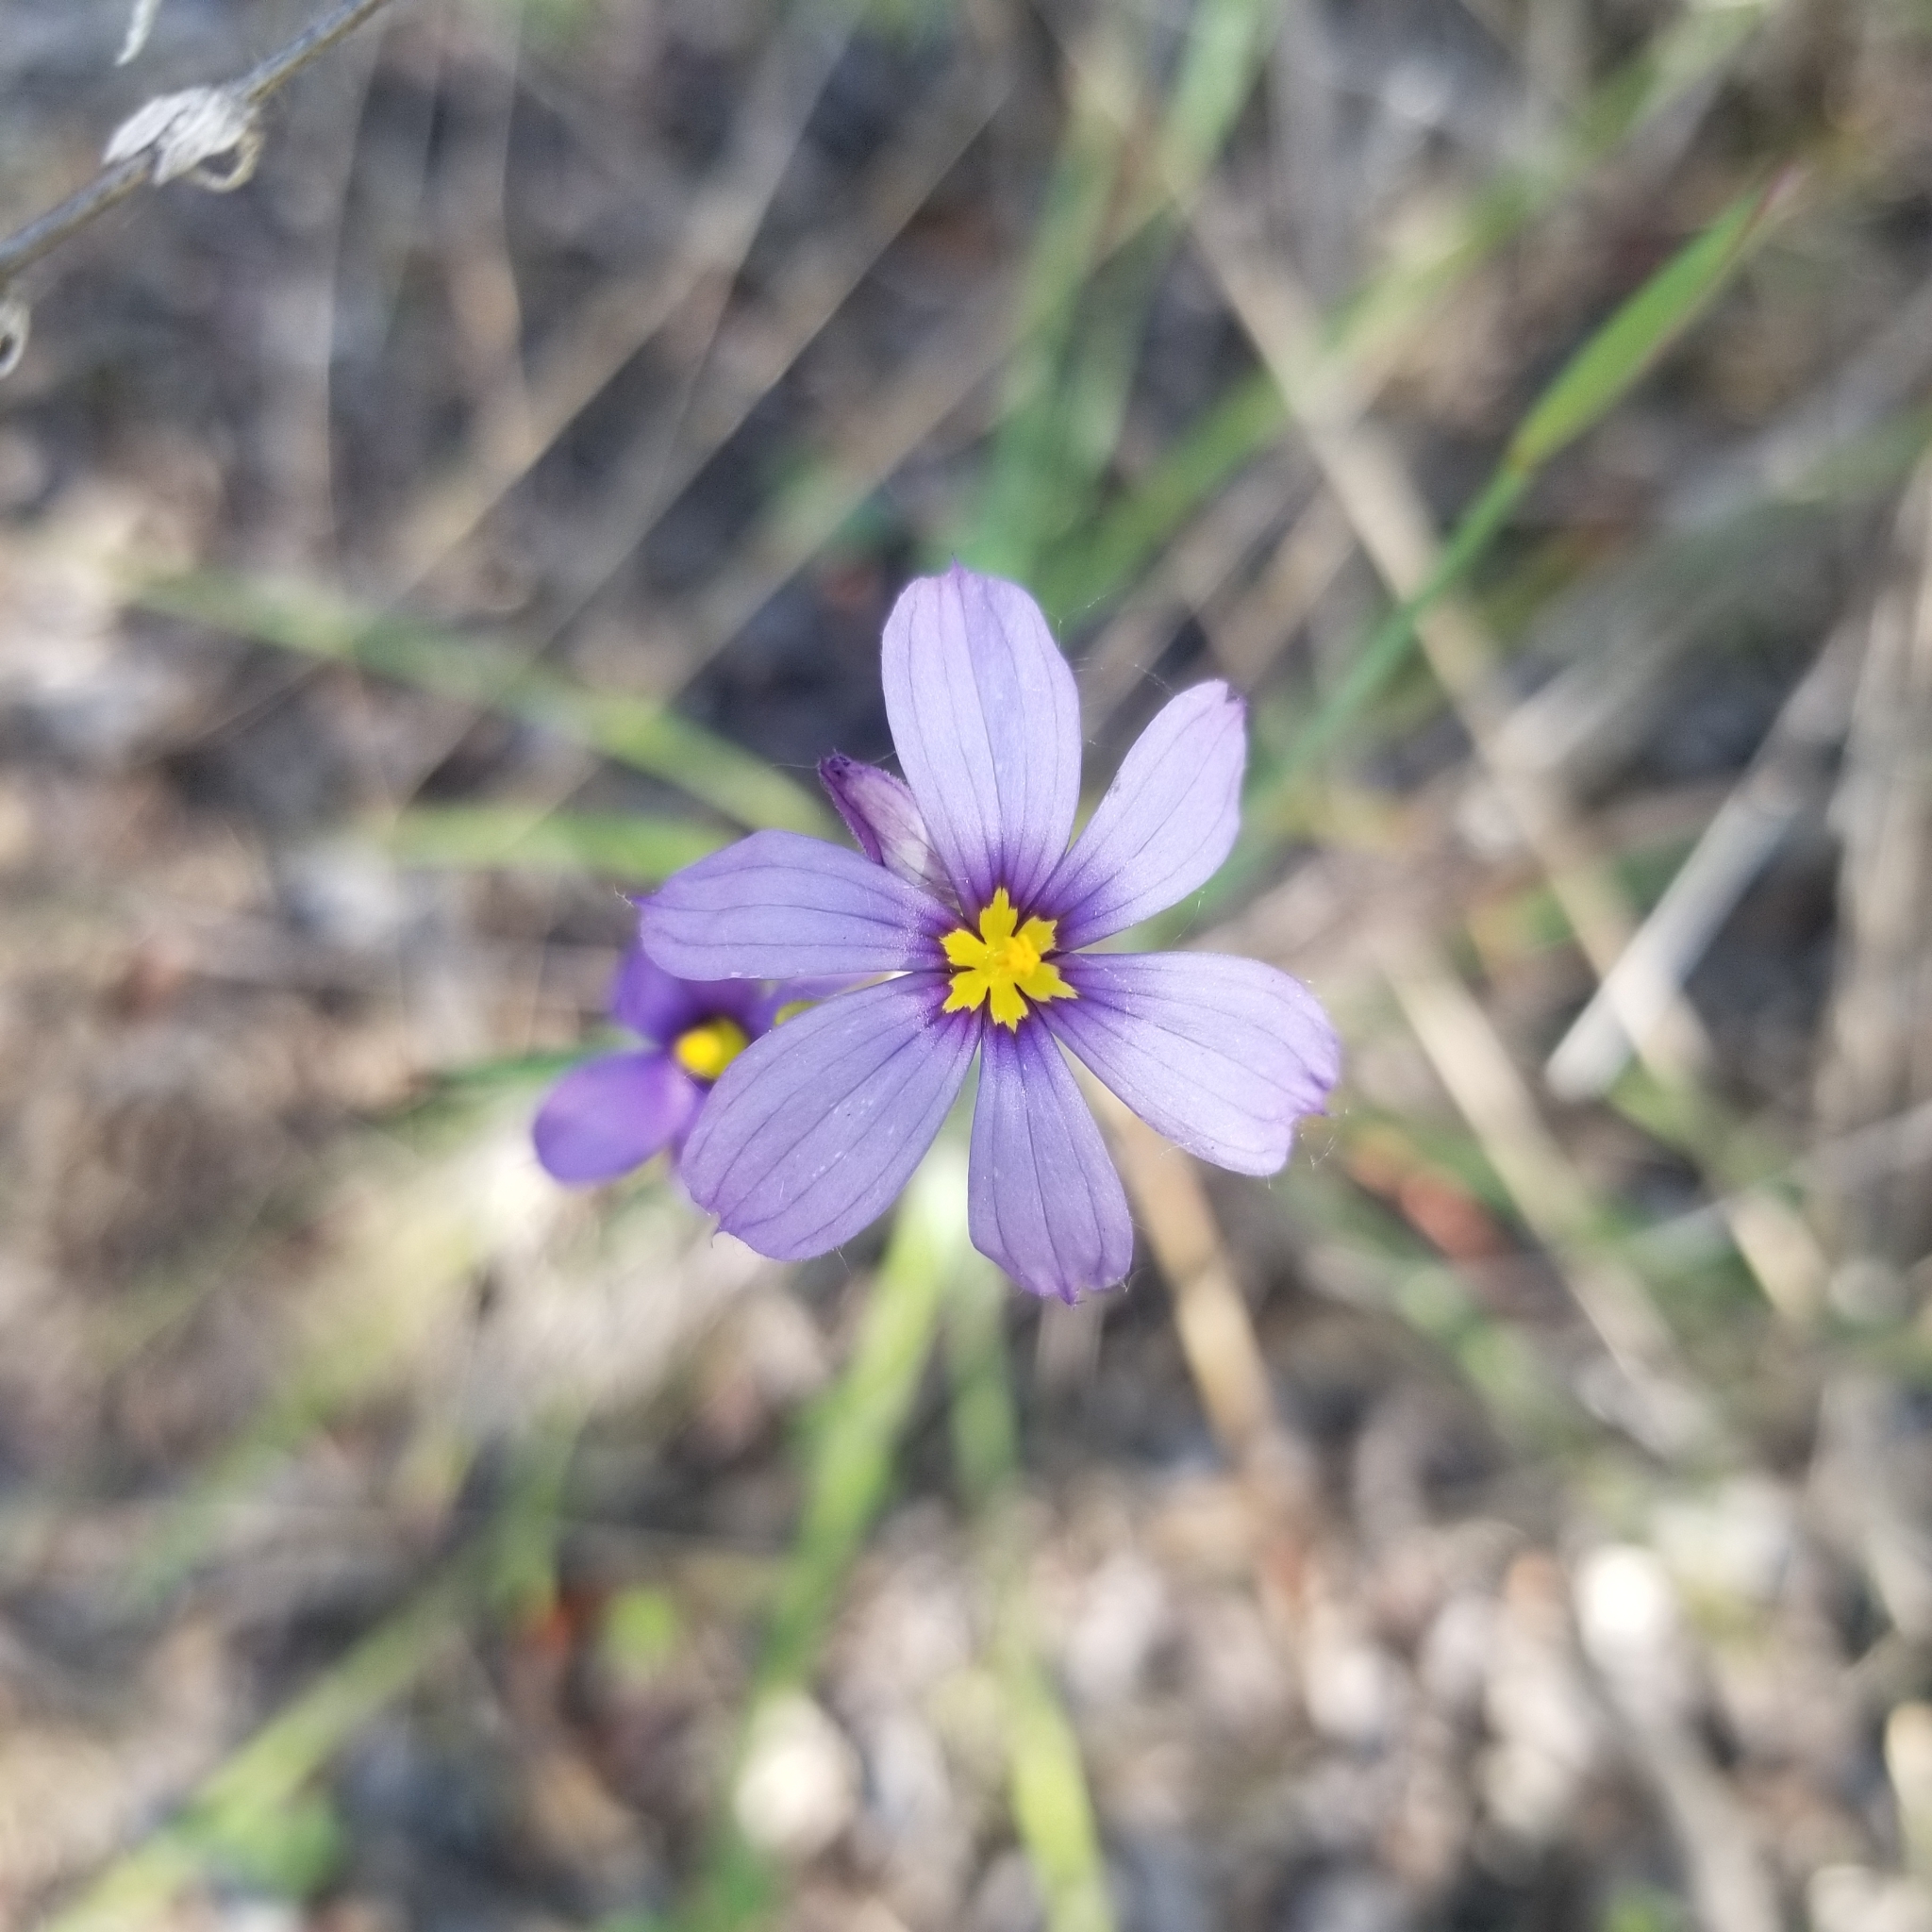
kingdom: Plantae
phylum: Tracheophyta
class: Liliopsida
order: Asparagales
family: Iridaceae
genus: Sisyrinchium
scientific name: Sisyrinchium bellum
